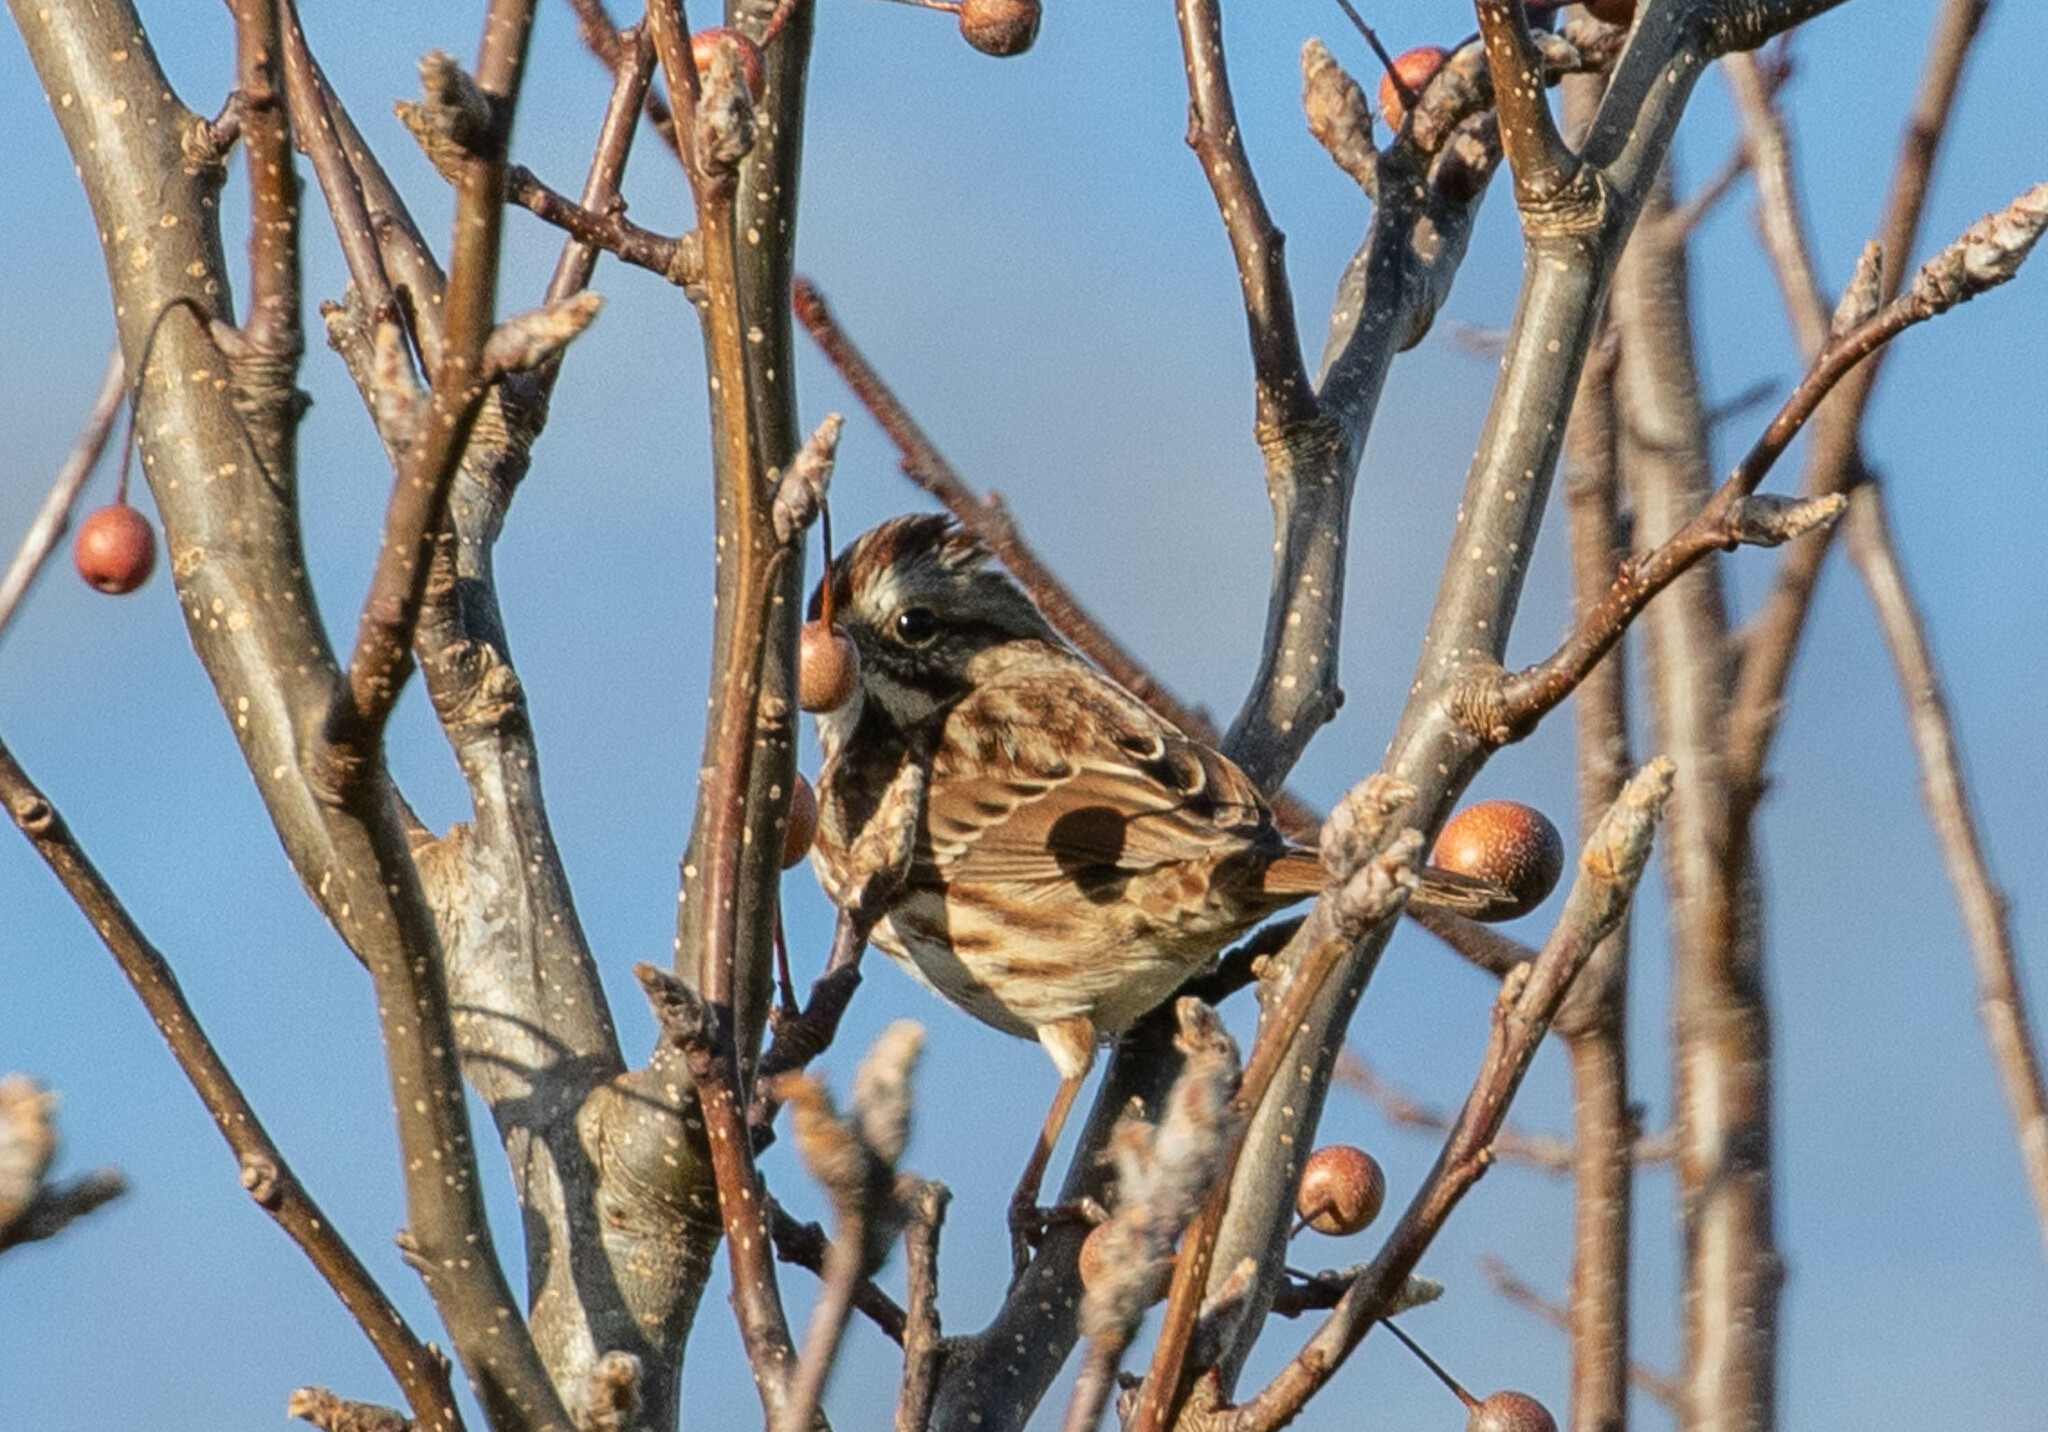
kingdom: Animalia
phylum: Chordata
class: Aves
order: Passeriformes
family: Passerellidae
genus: Melospiza
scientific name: Melospiza melodia
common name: Song sparrow
